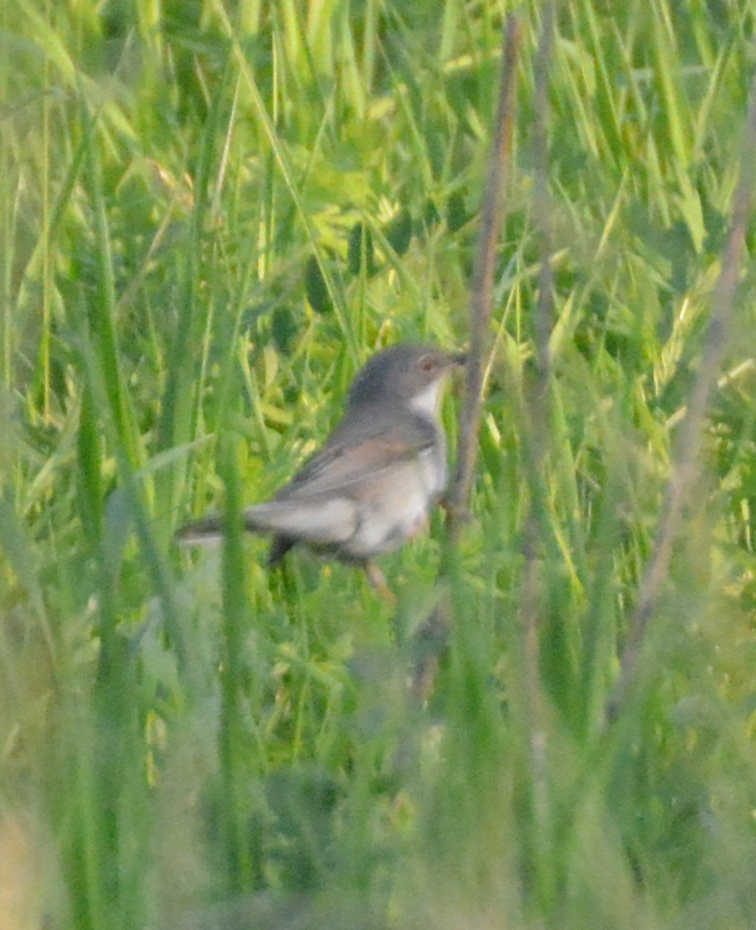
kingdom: Animalia
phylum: Chordata
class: Aves
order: Passeriformes
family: Sylviidae
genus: Sylvia
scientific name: Sylvia communis
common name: Common whitethroat
